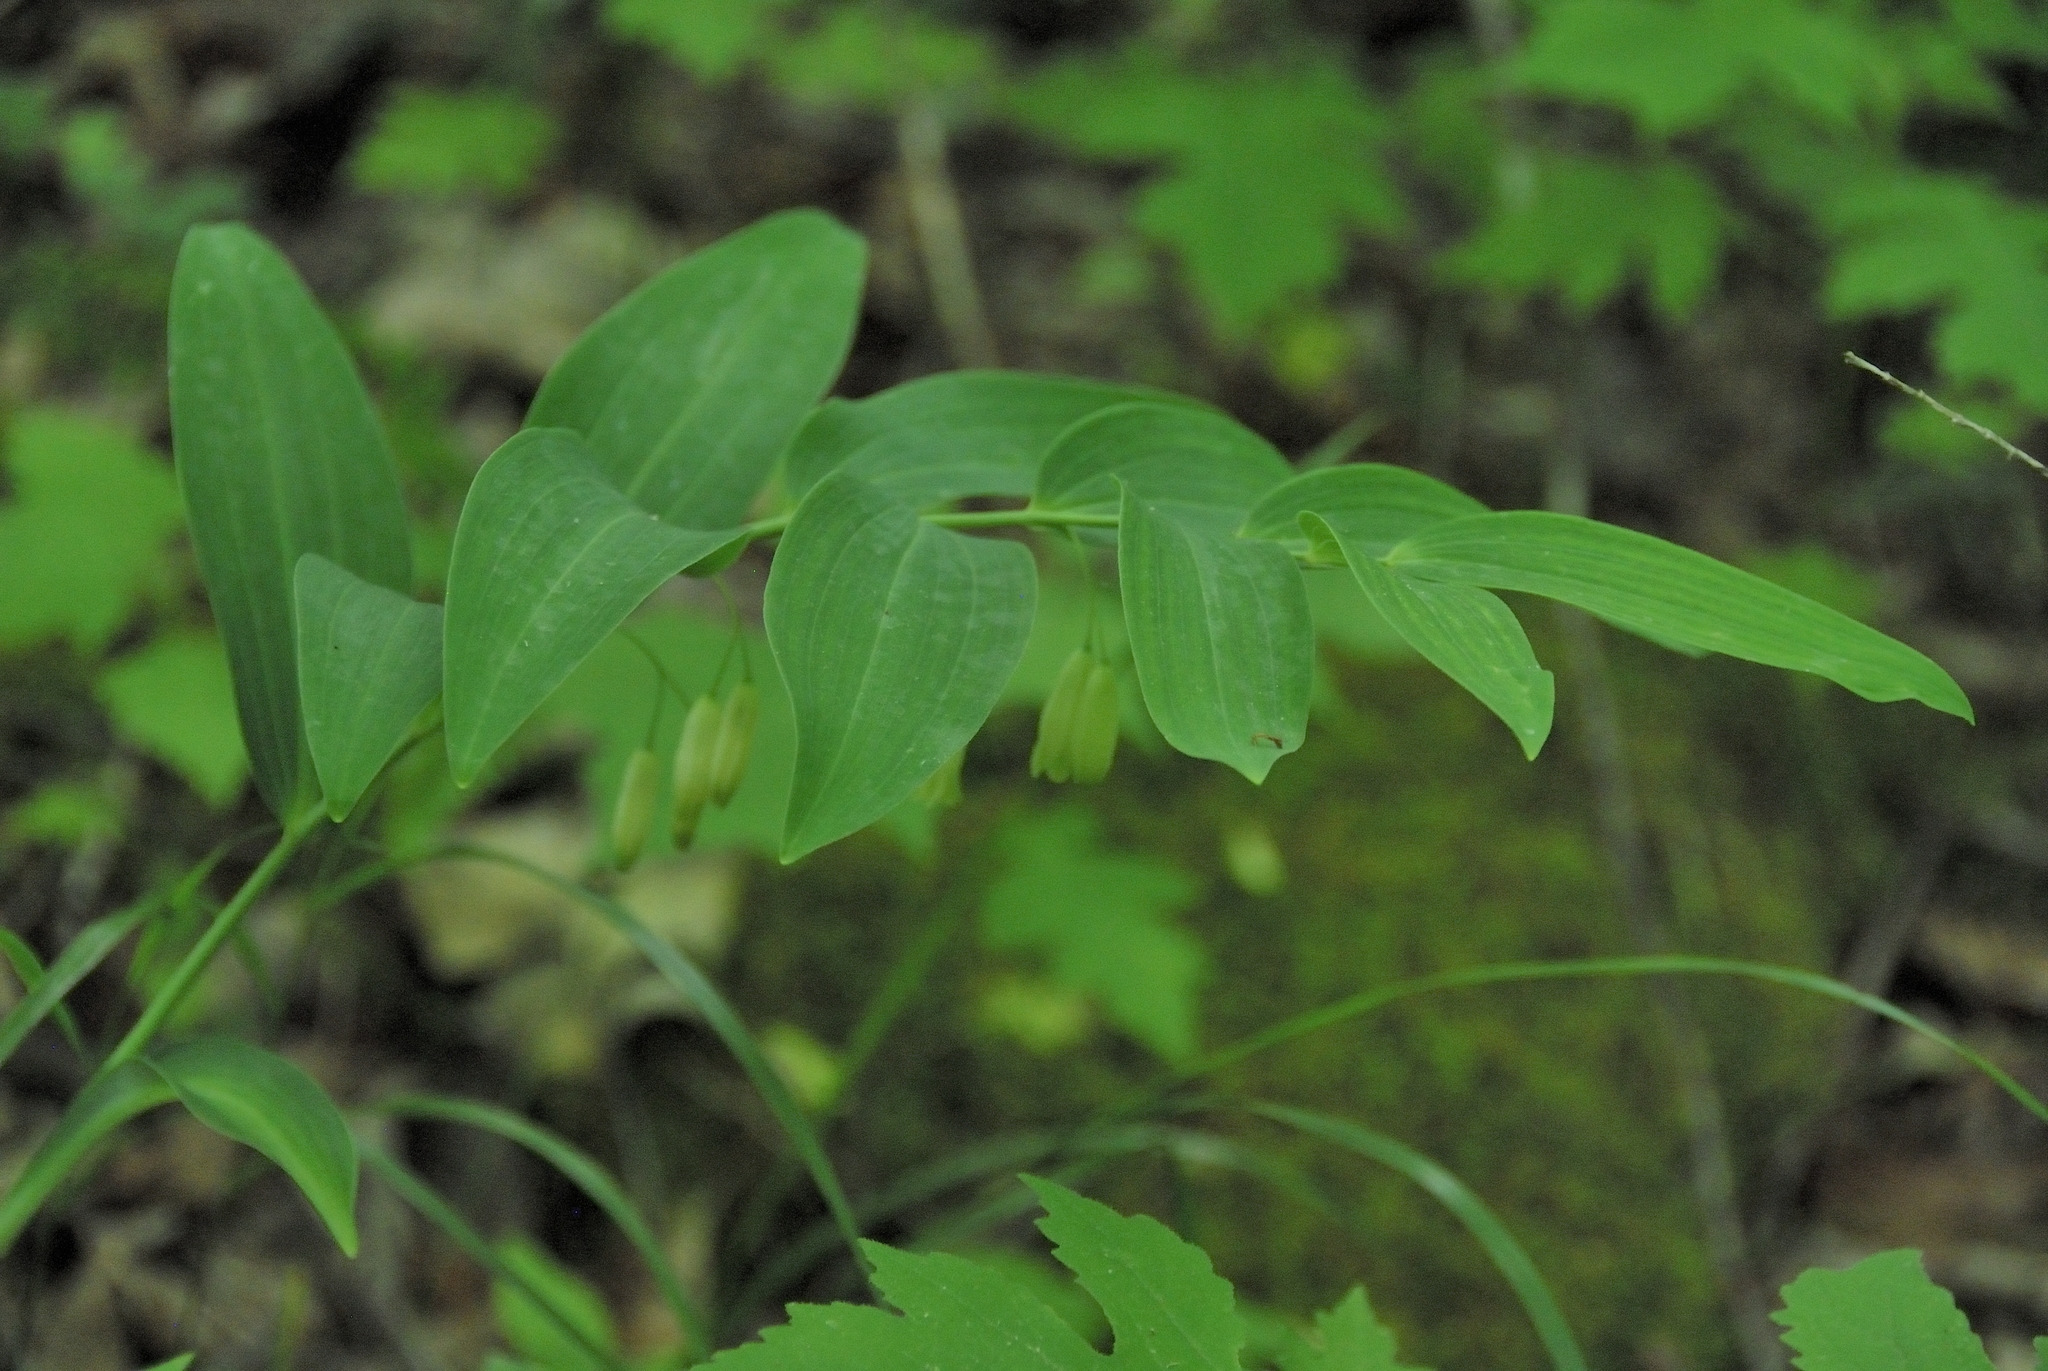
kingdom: Plantae
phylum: Tracheophyta
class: Liliopsida
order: Asparagales
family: Asparagaceae
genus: Polygonatum
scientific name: Polygonatum biflorum
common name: American solomon's-seal
